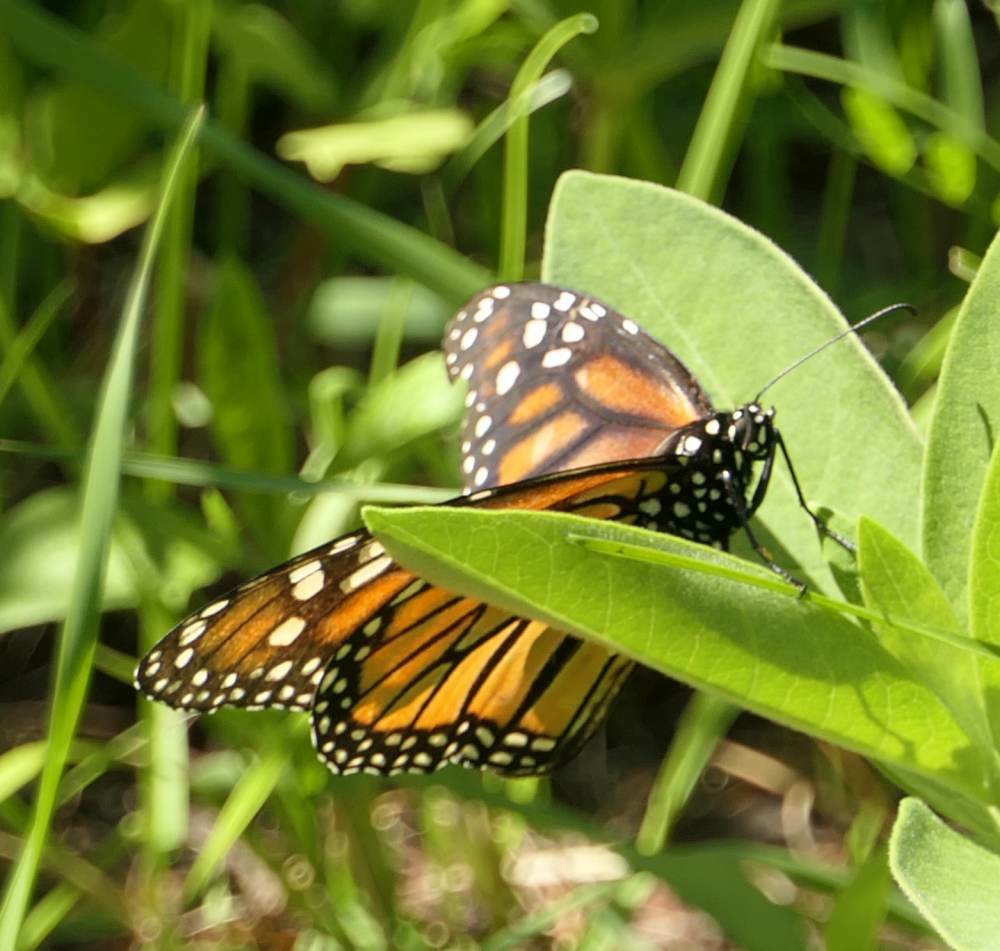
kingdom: Animalia
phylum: Arthropoda
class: Insecta
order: Lepidoptera
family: Nymphalidae
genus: Danaus
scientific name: Danaus plexippus
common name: Monarch
